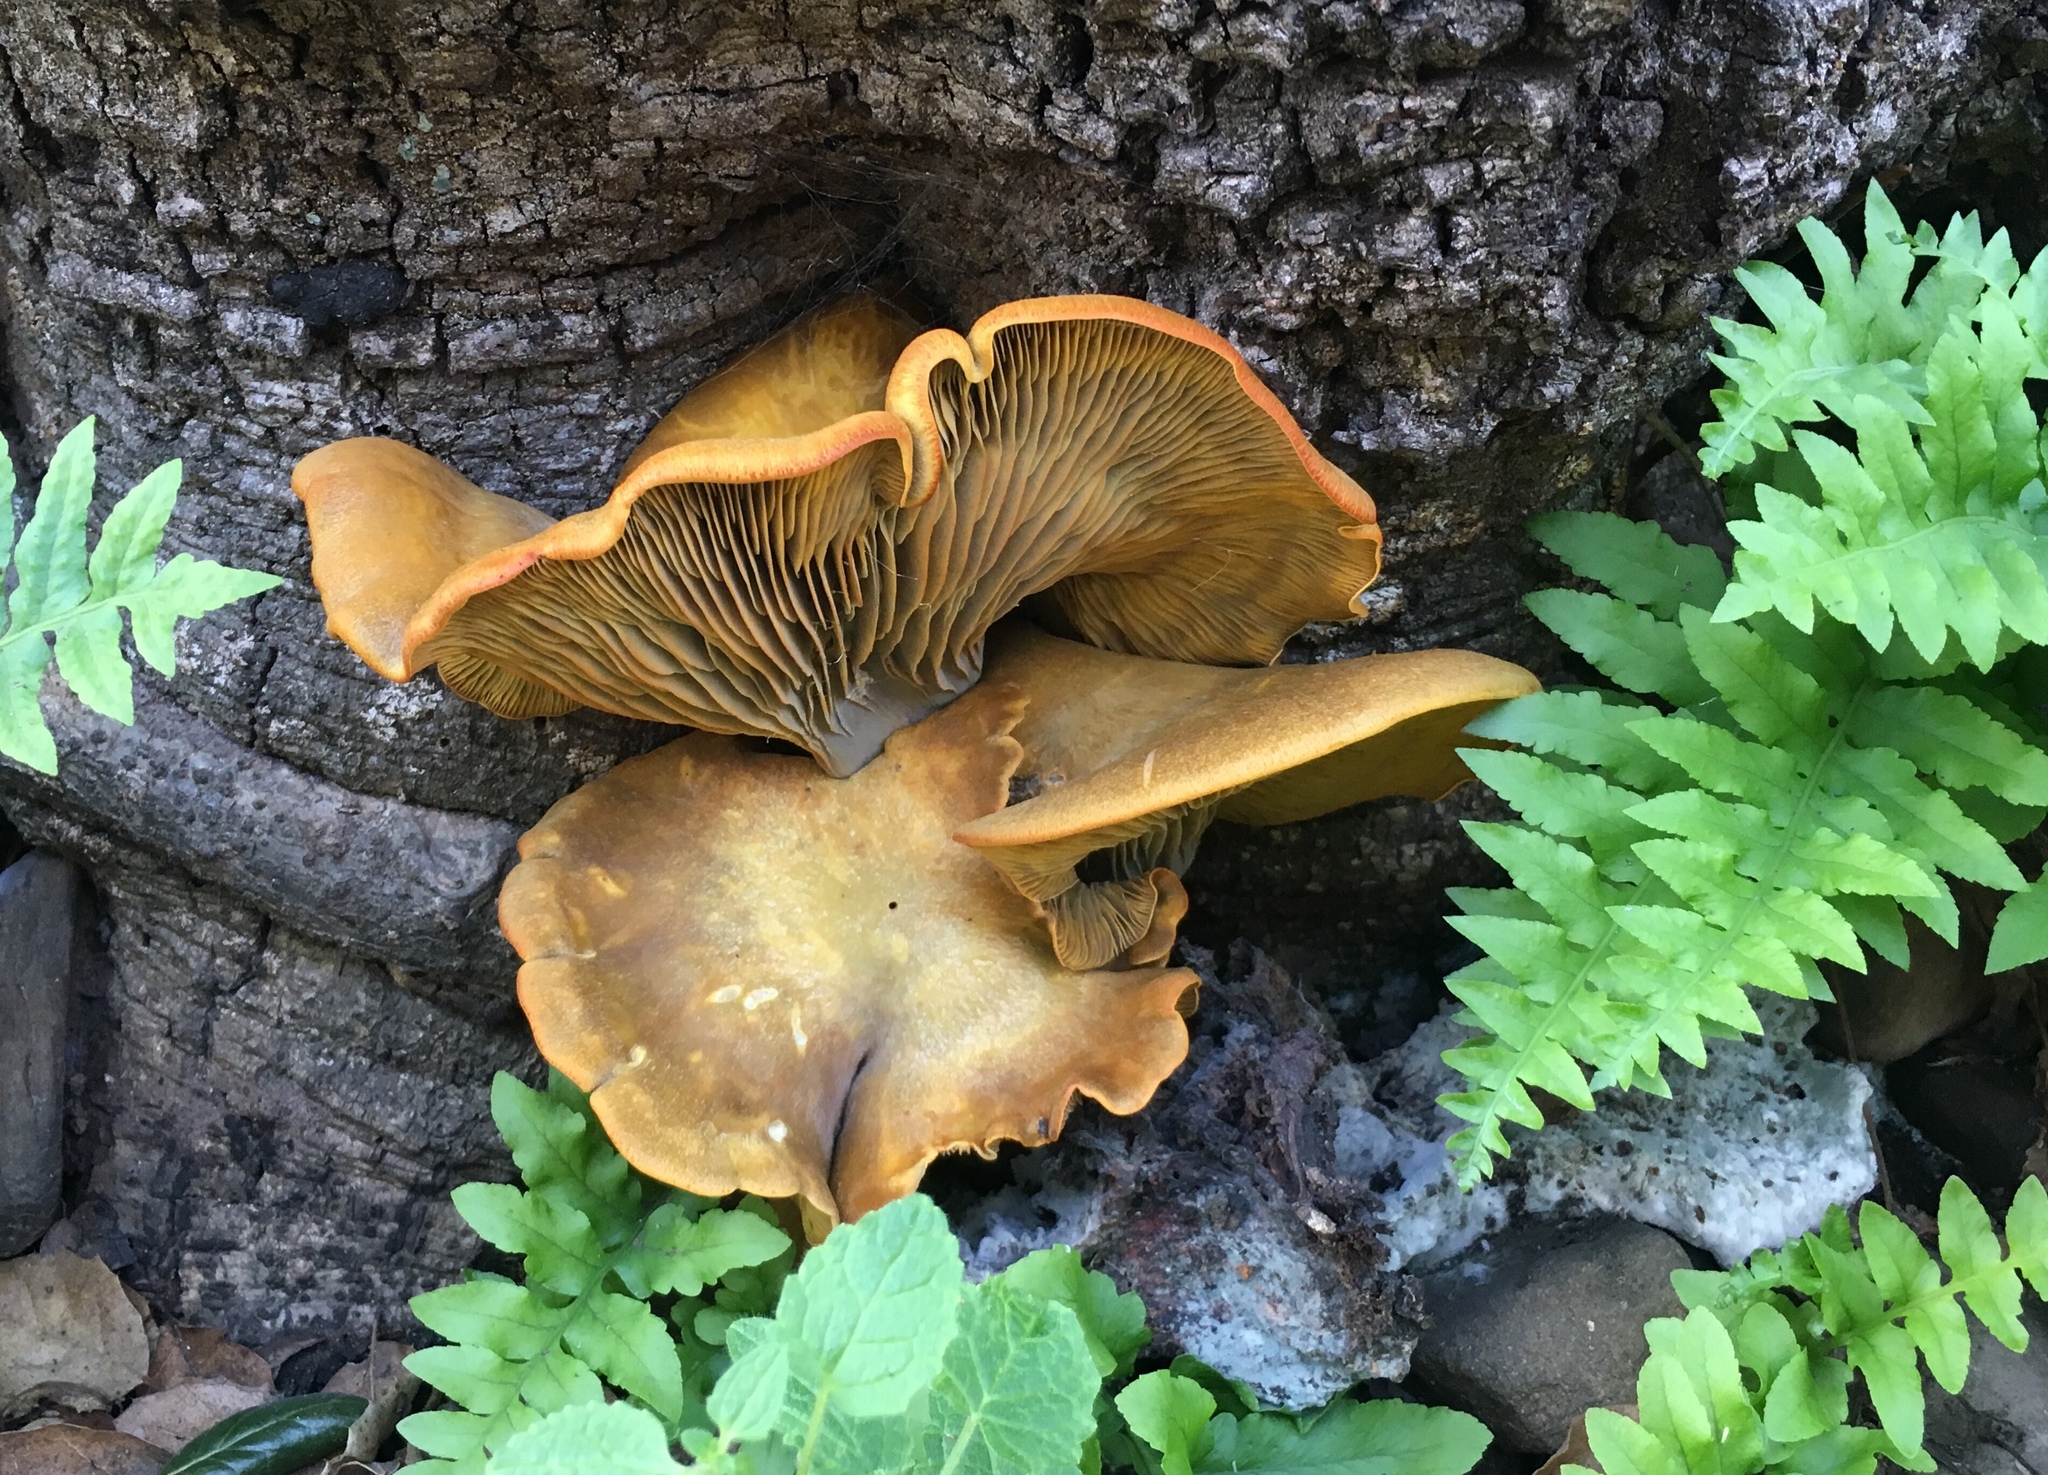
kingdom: Fungi
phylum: Basidiomycota
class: Agaricomycetes
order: Agaricales
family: Omphalotaceae
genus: Omphalotus
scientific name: Omphalotus olivascens
